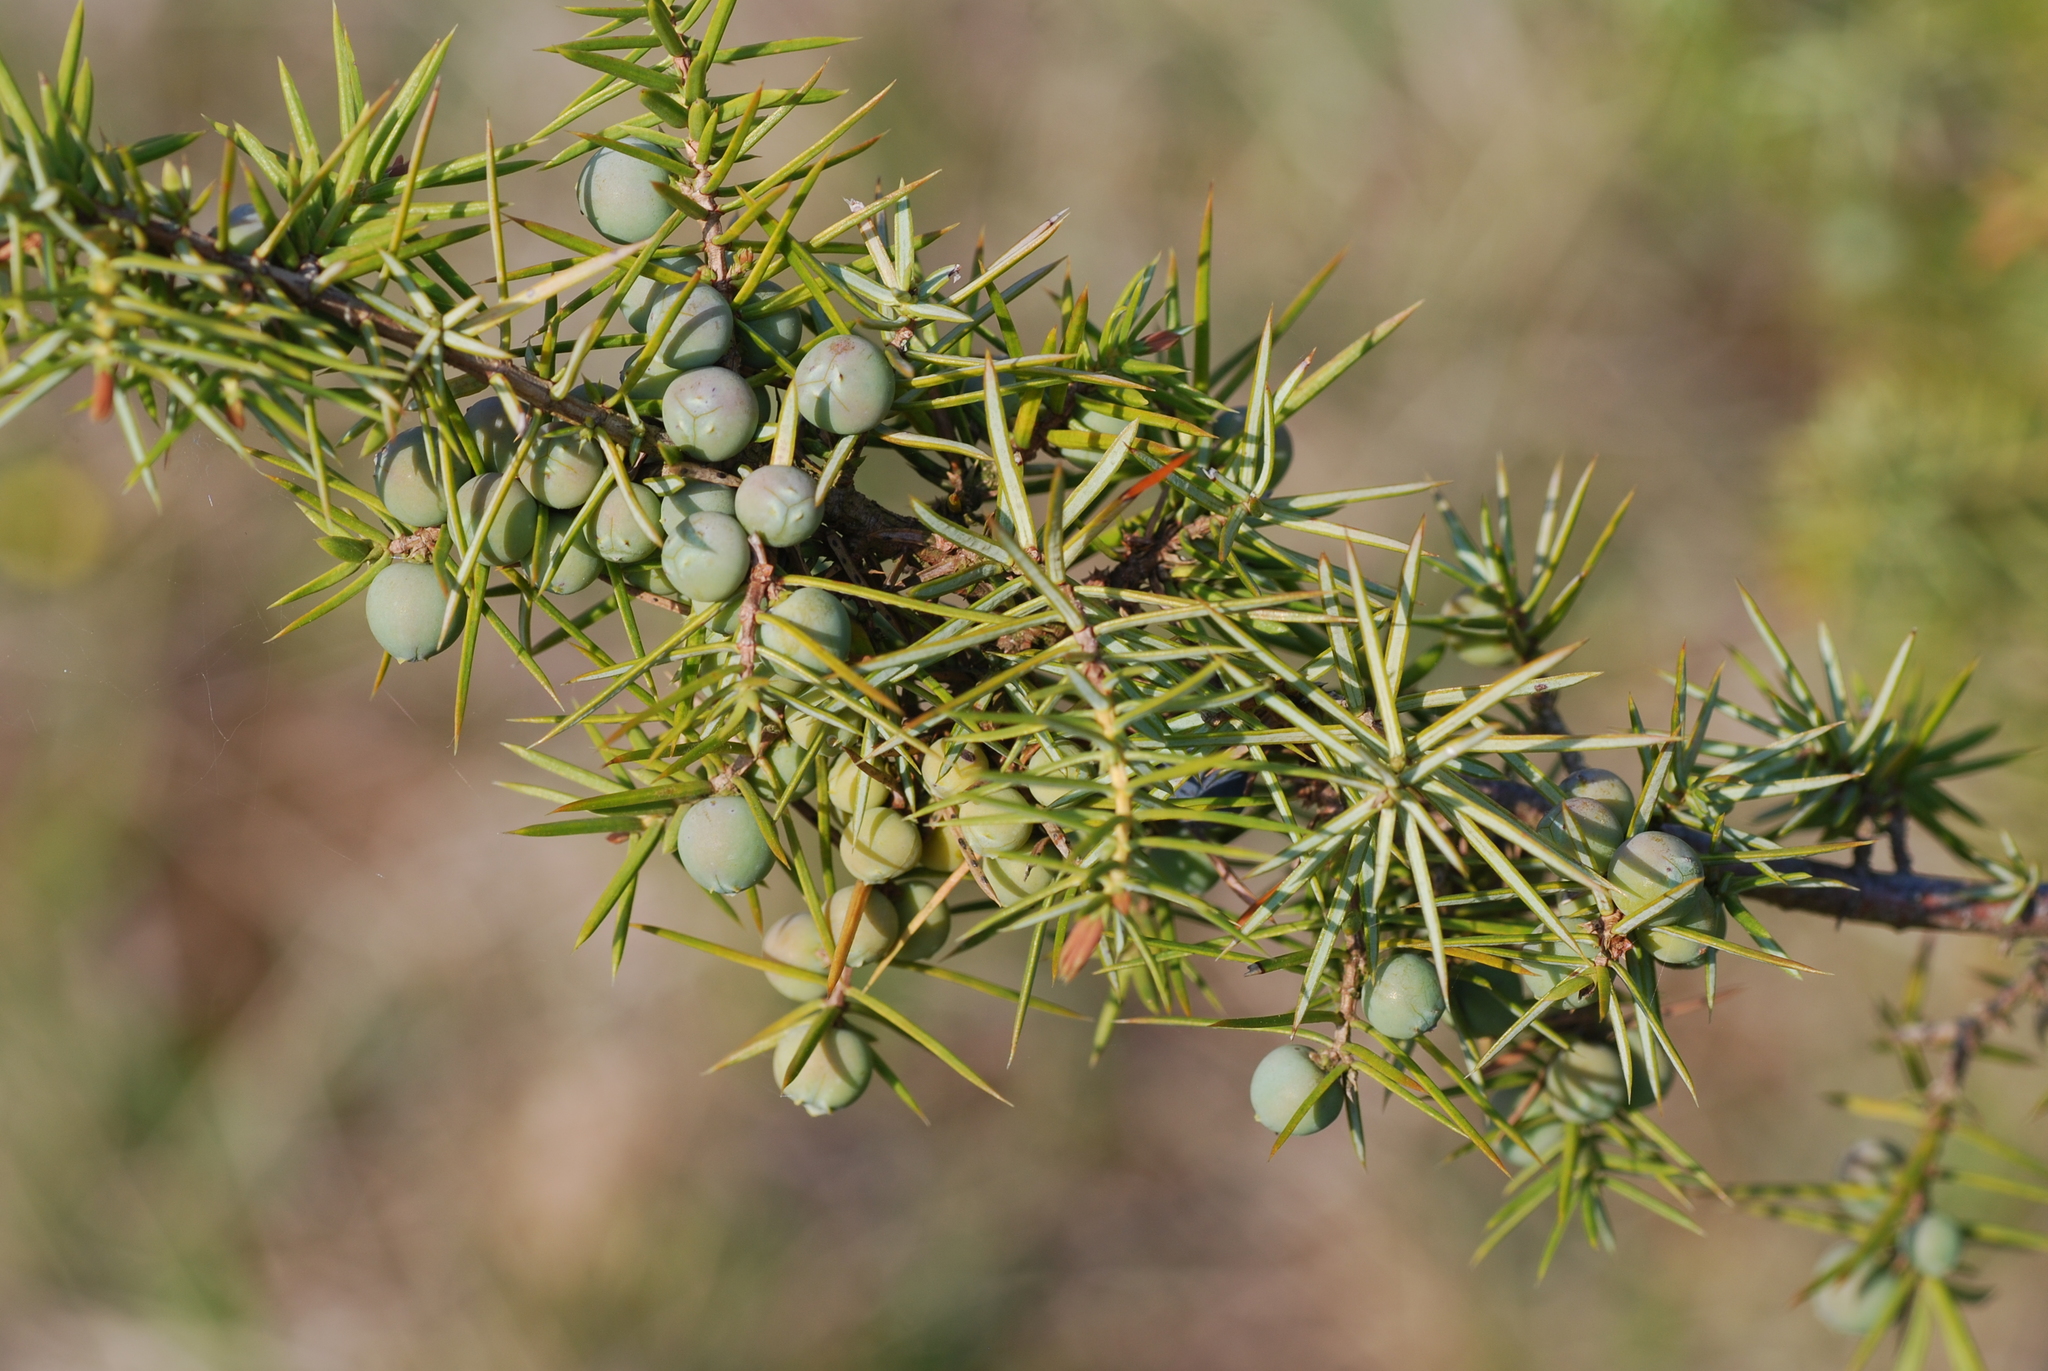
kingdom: Plantae
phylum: Tracheophyta
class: Pinopsida
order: Pinales
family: Cupressaceae
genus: Juniperus
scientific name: Juniperus communis
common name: Common juniper
